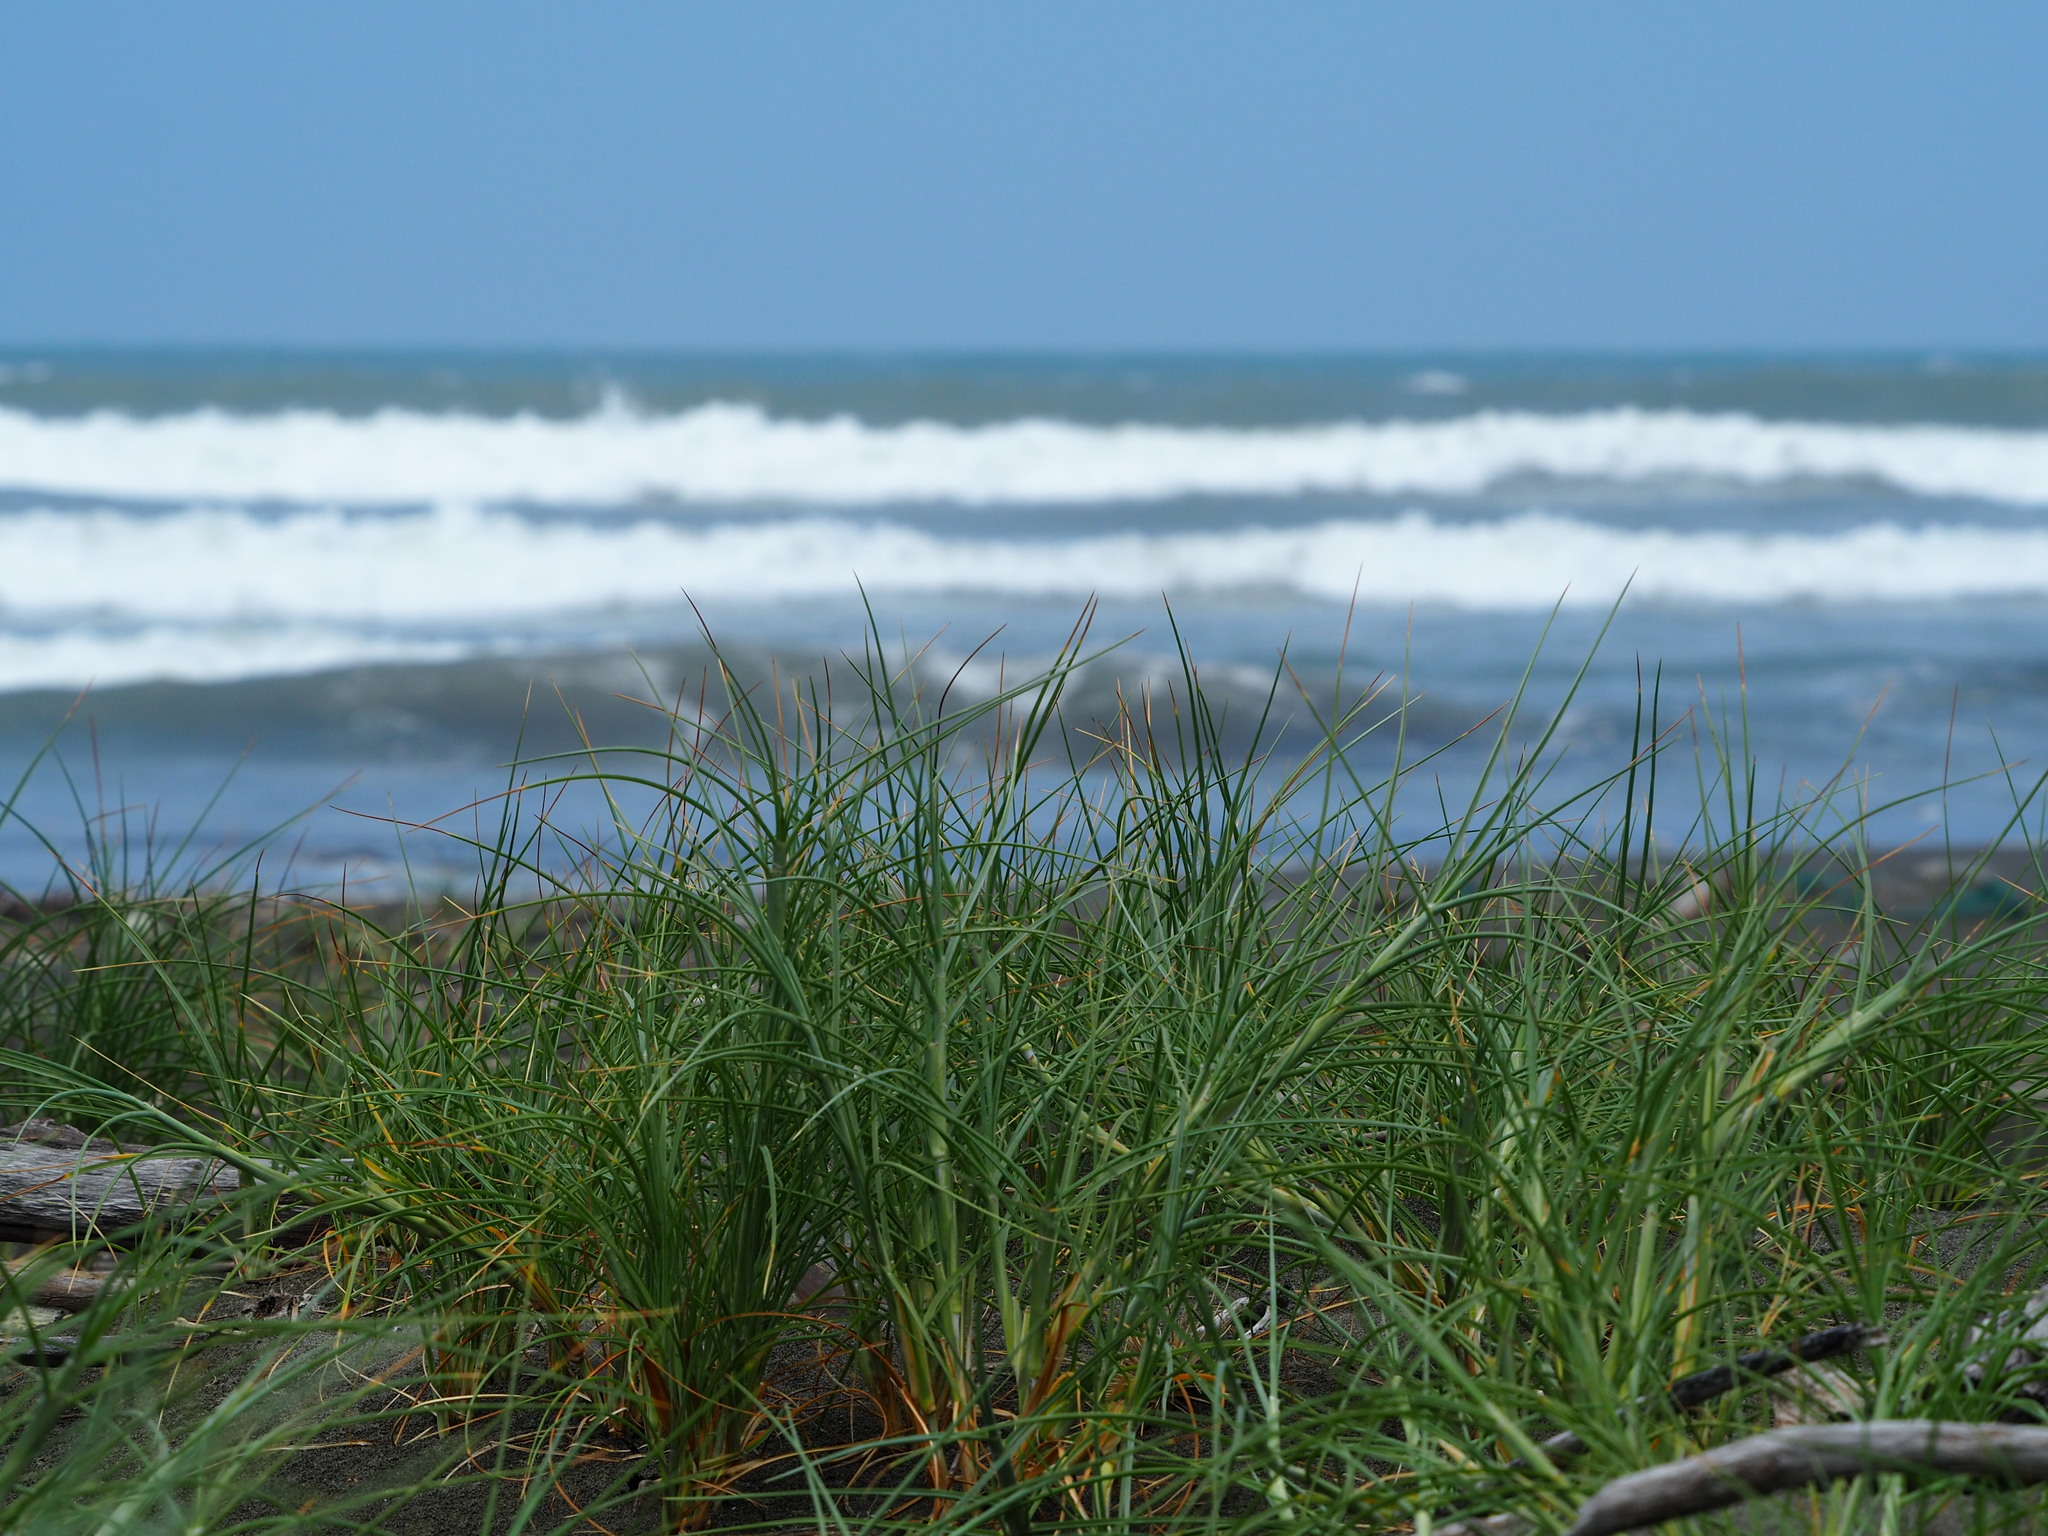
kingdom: Plantae
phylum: Tracheophyta
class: Liliopsida
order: Poales
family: Poaceae
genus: Spinifex
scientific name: Spinifex littoreus
